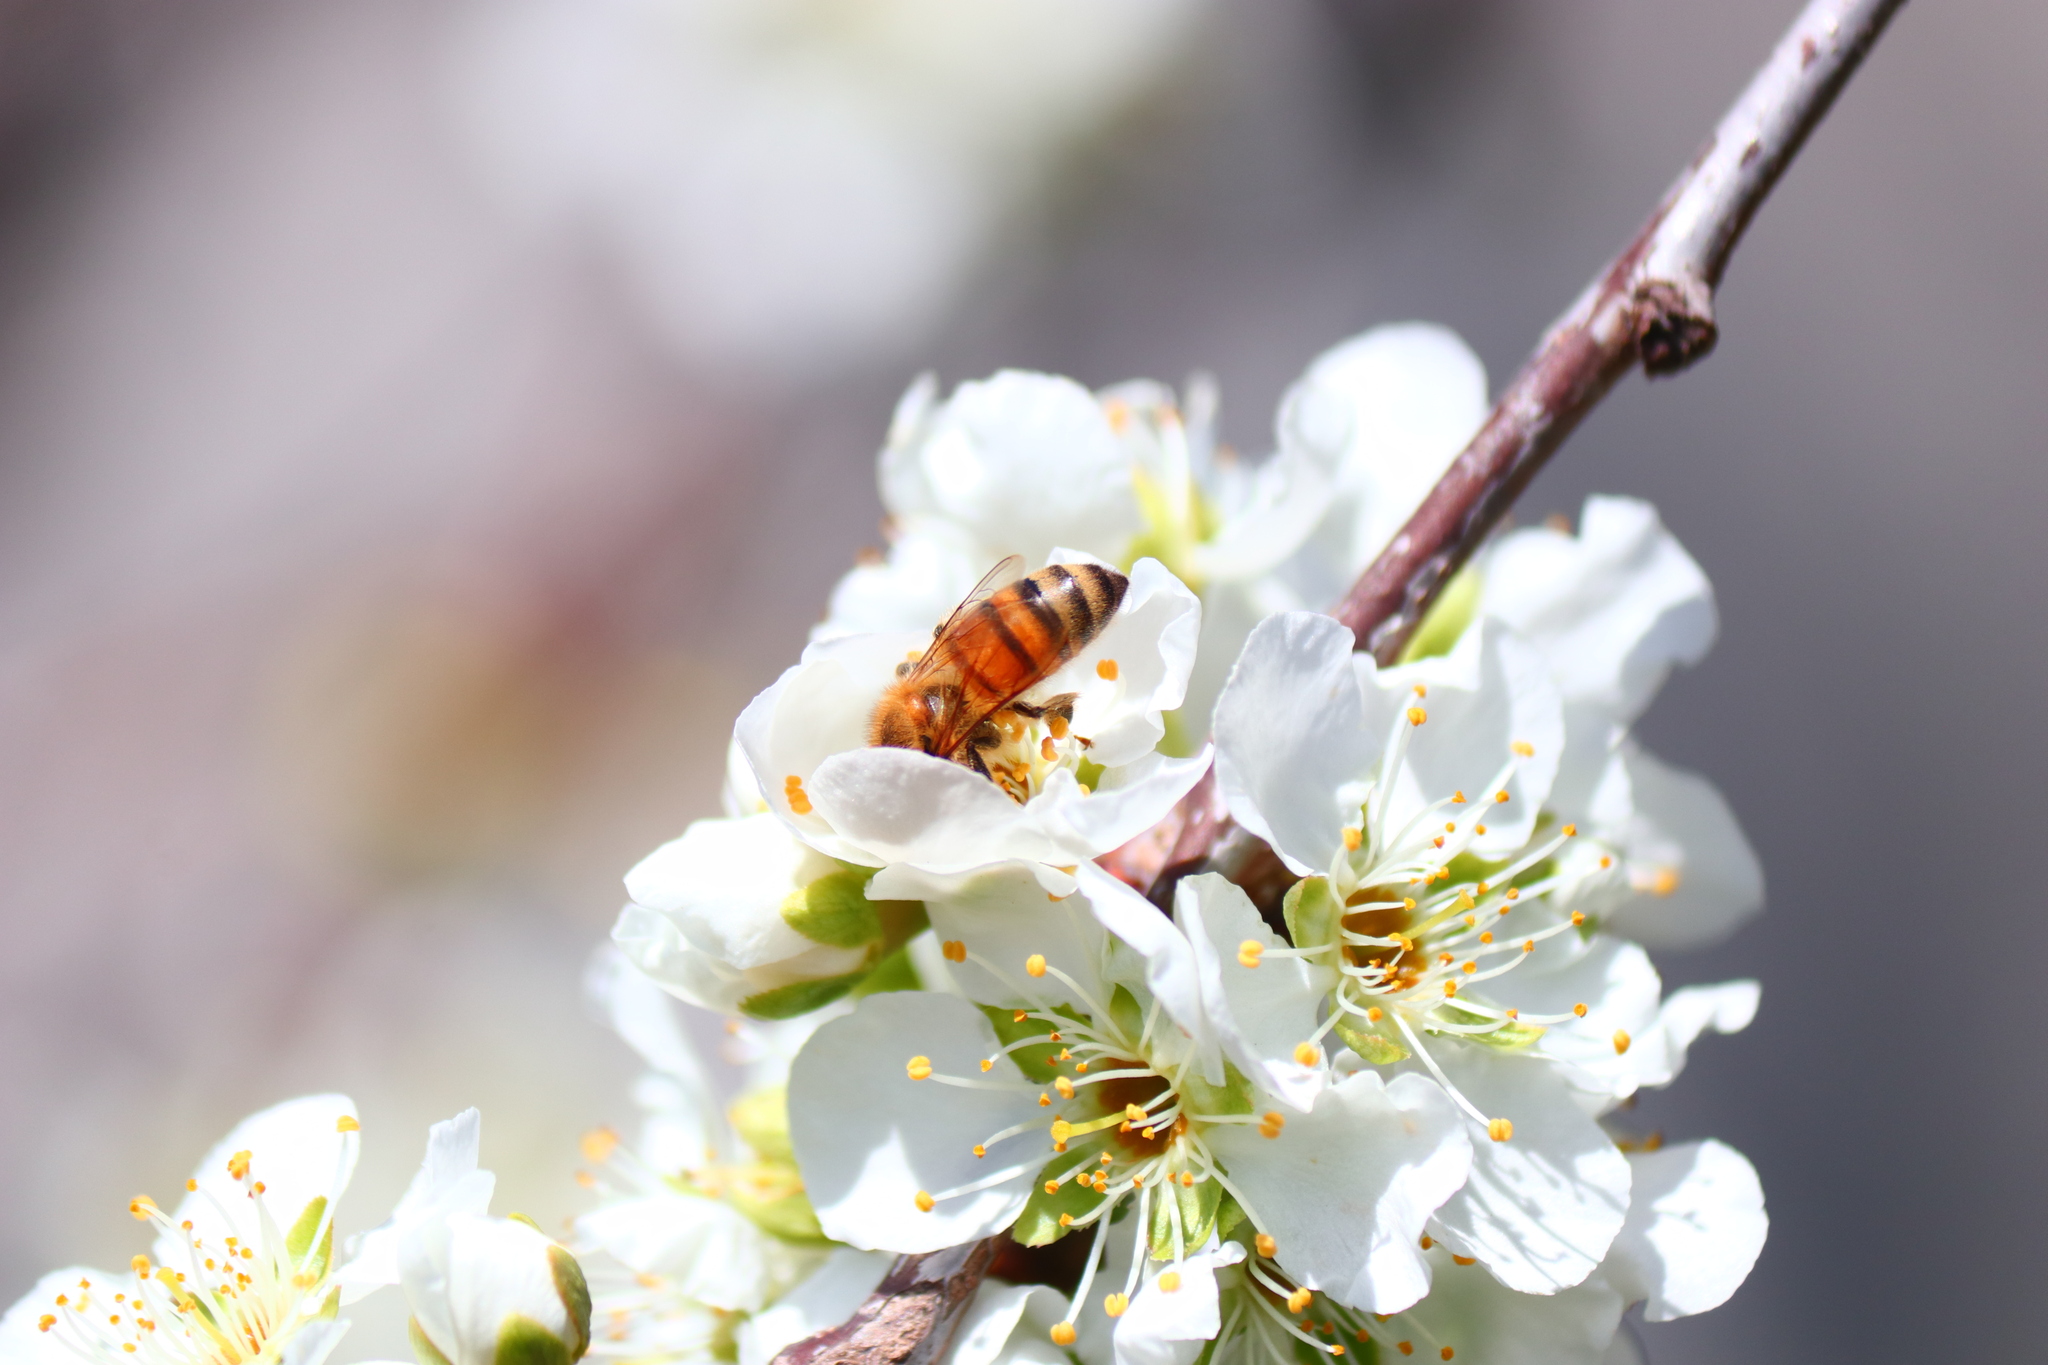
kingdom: Animalia
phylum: Arthropoda
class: Insecta
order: Hymenoptera
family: Apidae
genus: Apis
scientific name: Apis mellifera
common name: Honey bee
